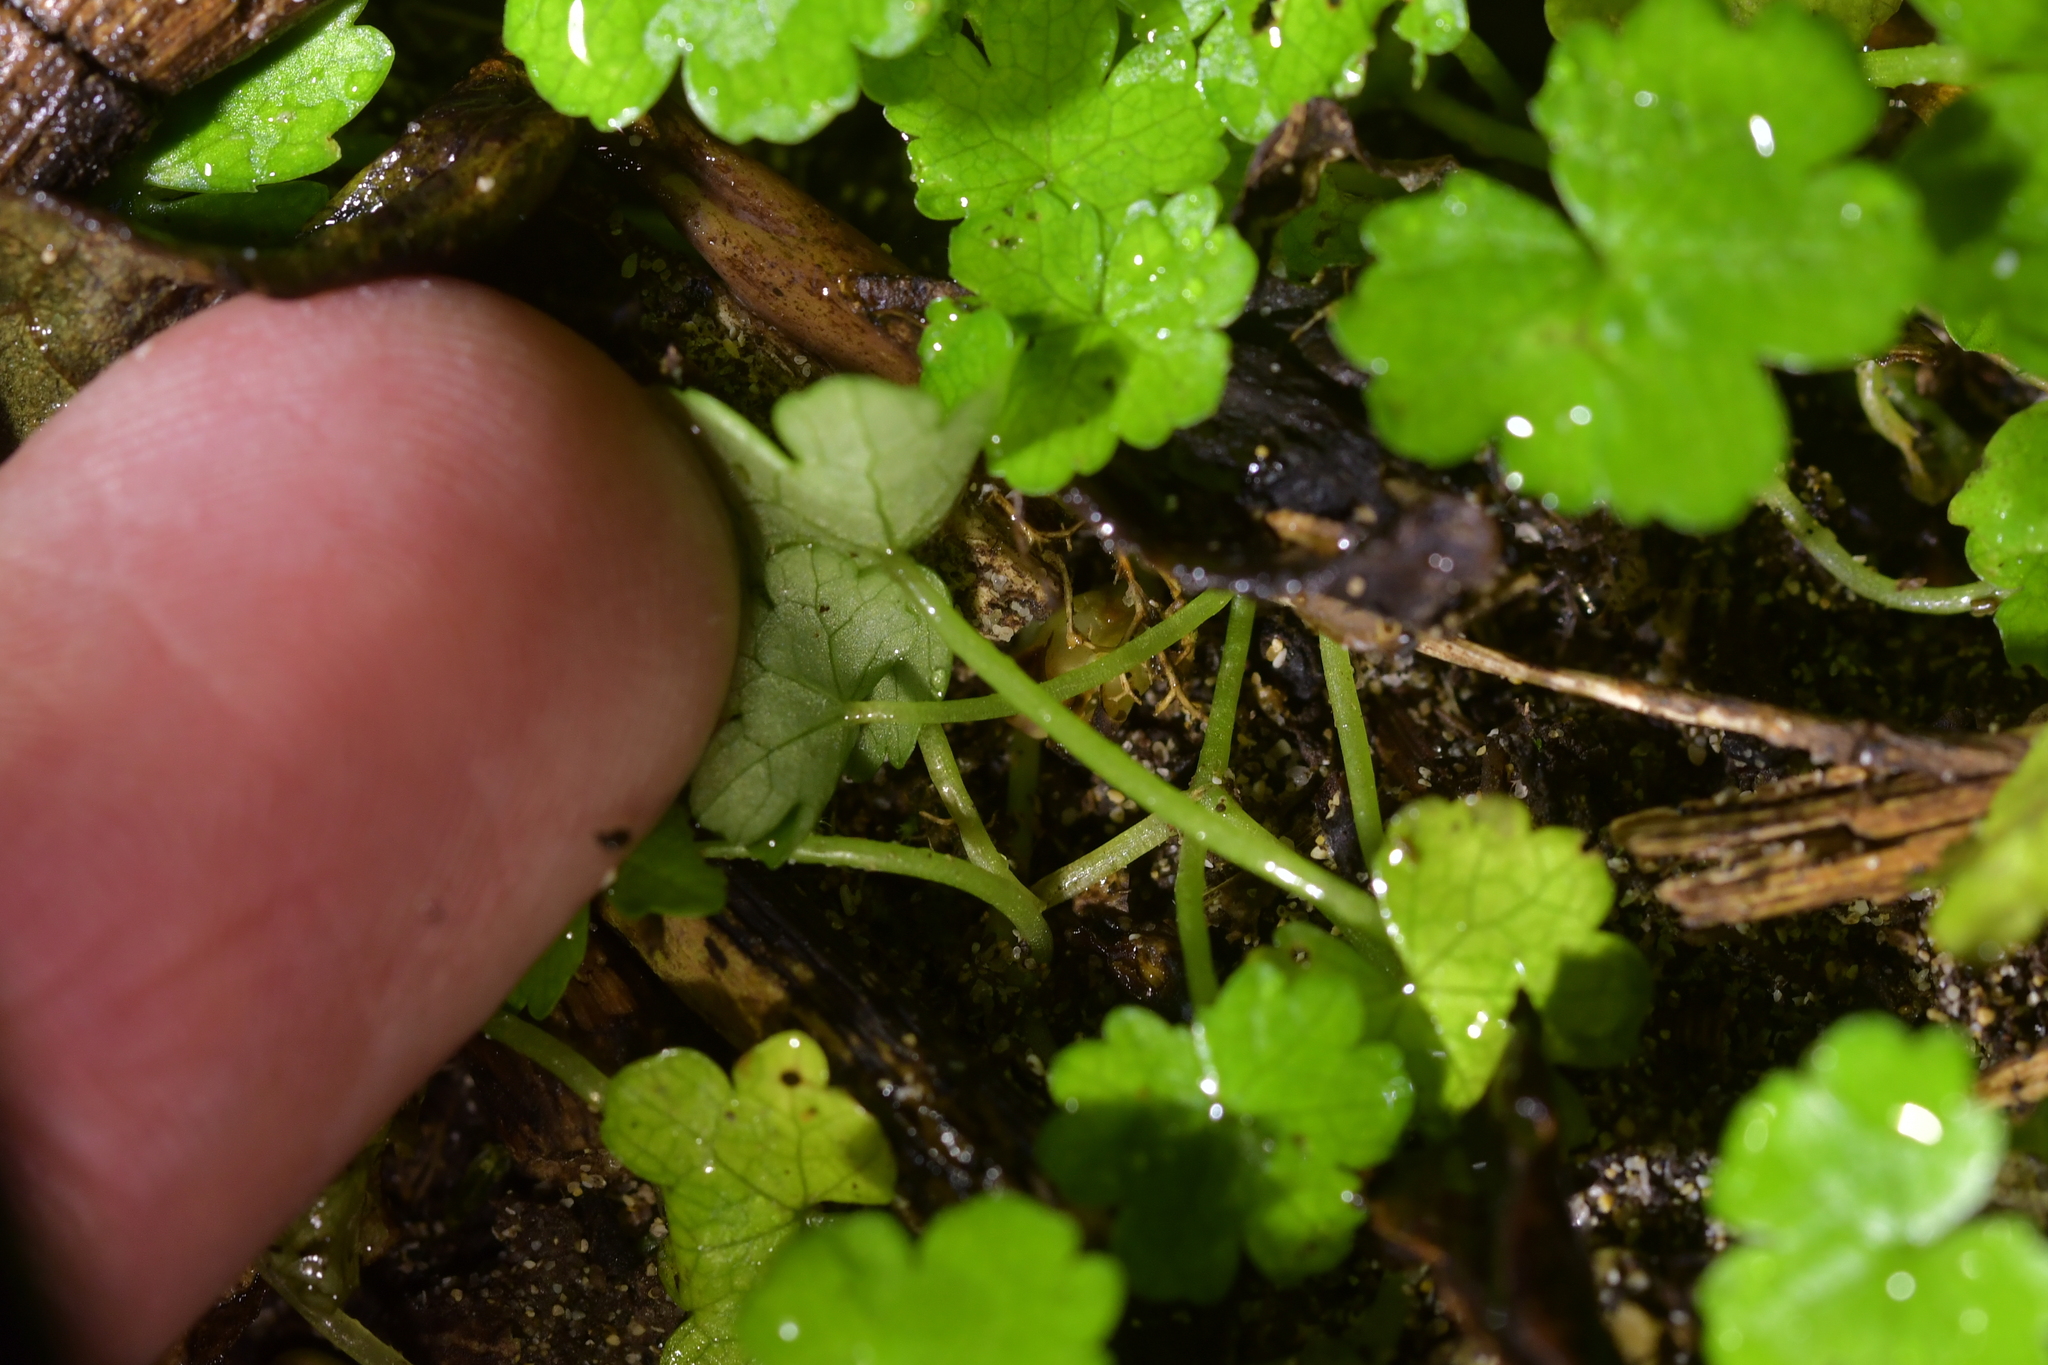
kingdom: Plantae
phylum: Tracheophyta
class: Magnoliopsida
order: Apiales
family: Araliaceae
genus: Hydrocotyle
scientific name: Hydrocotyle heteromeria
